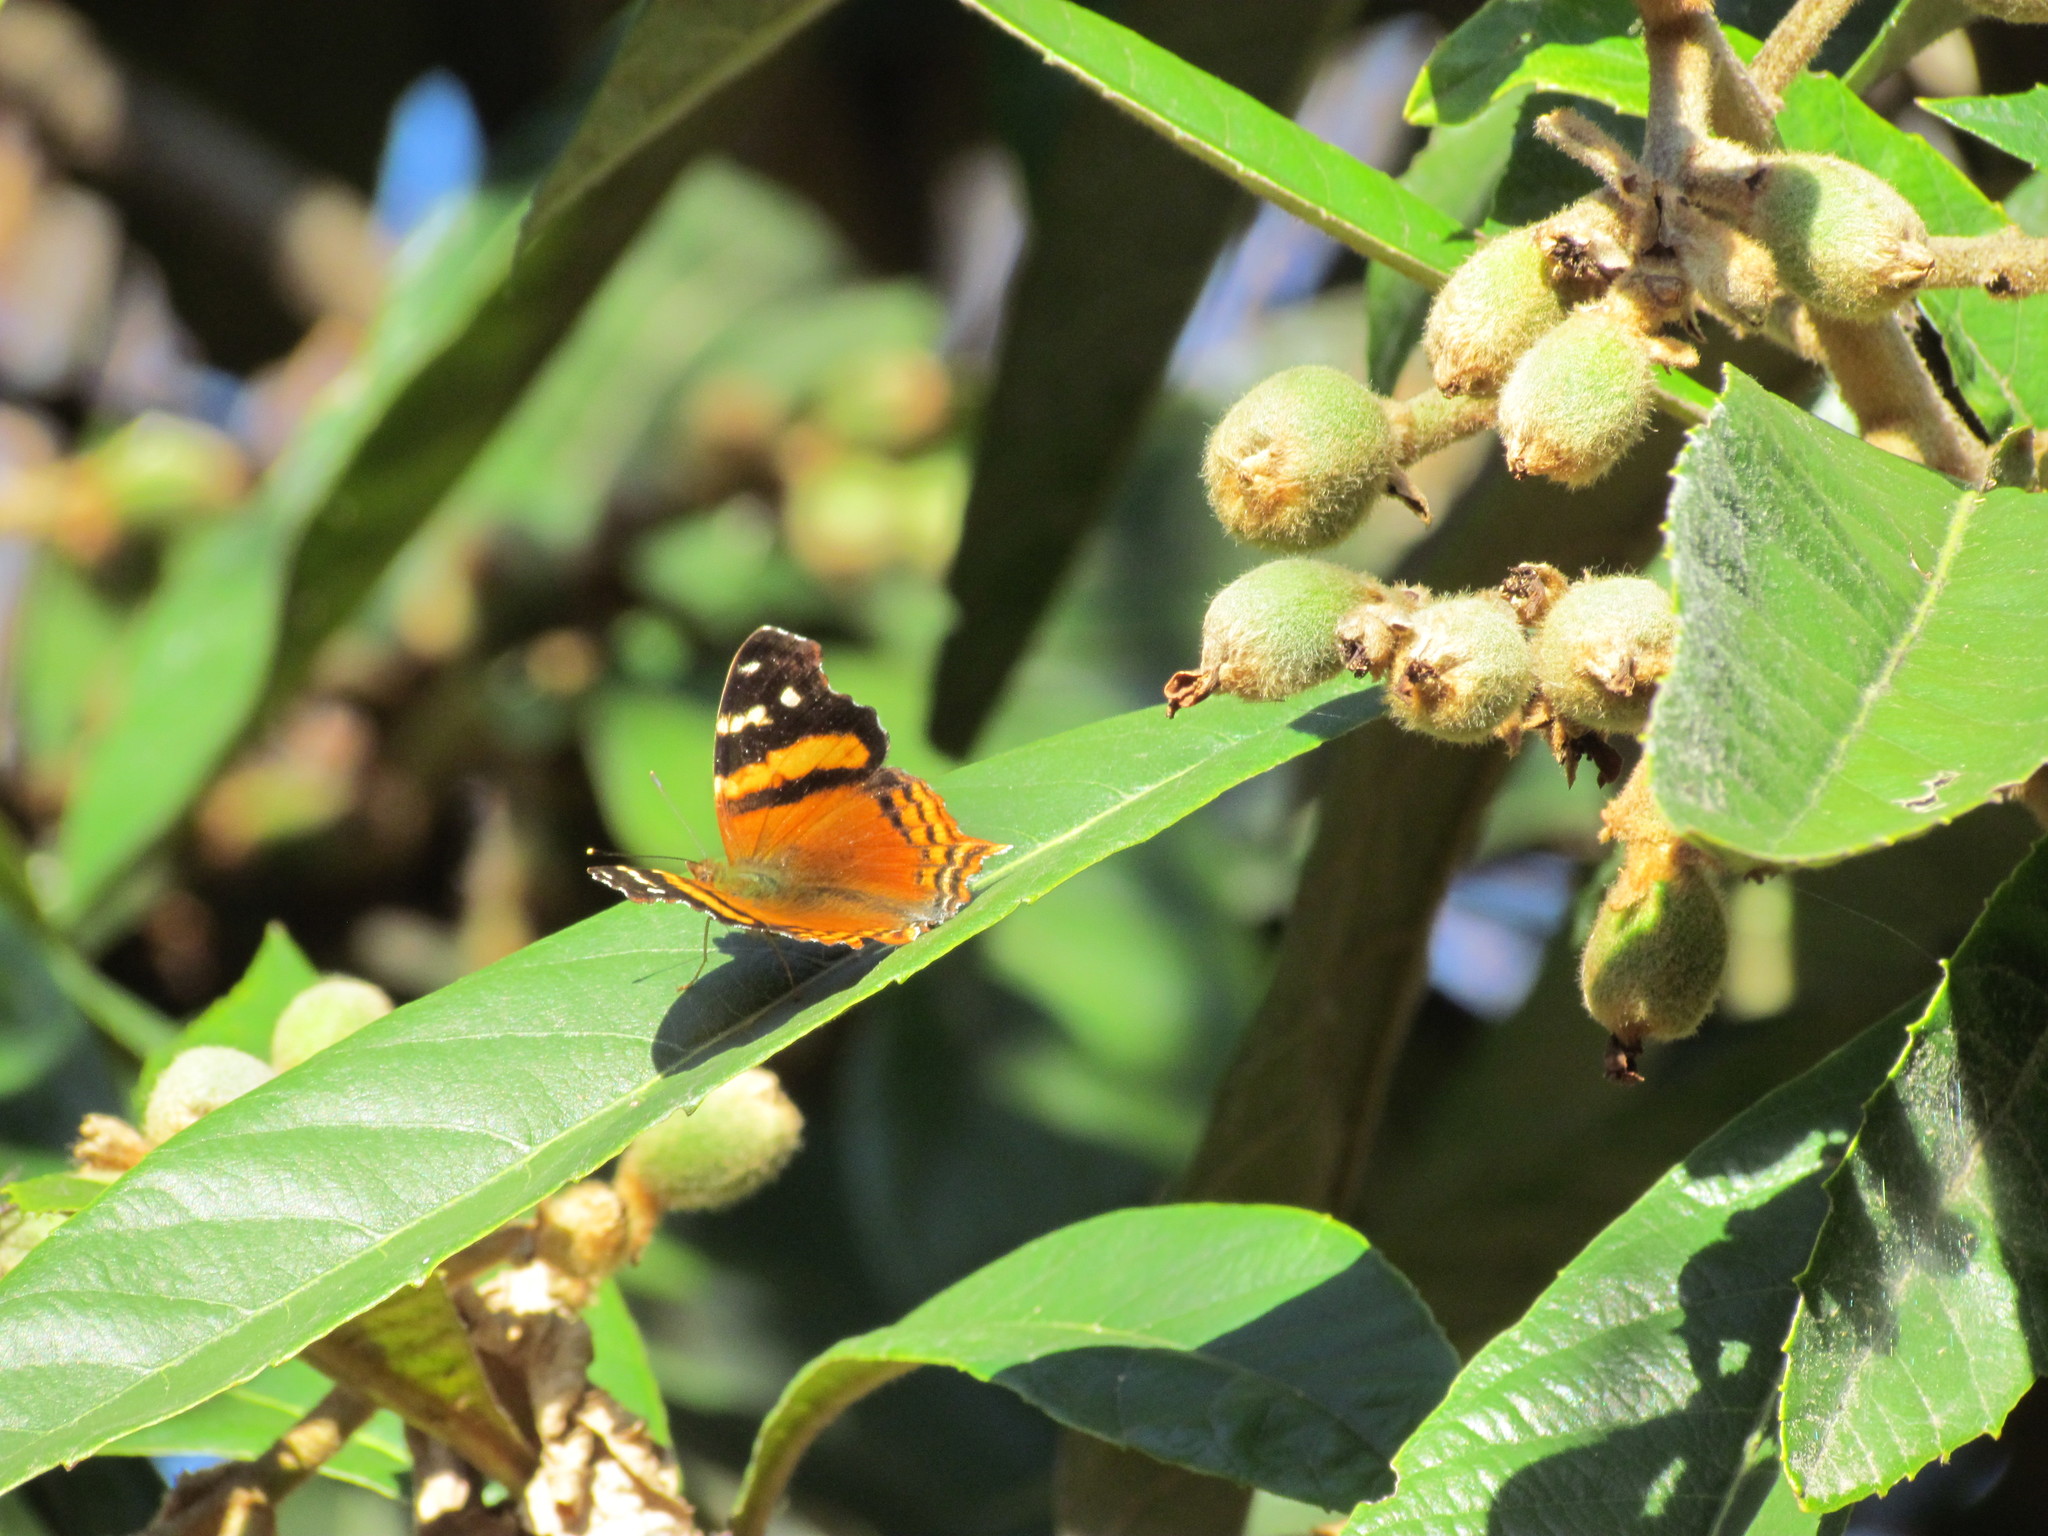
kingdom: Animalia
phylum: Arthropoda
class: Insecta
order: Lepidoptera
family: Nymphalidae
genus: Hypanartia
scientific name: Hypanartia bella
